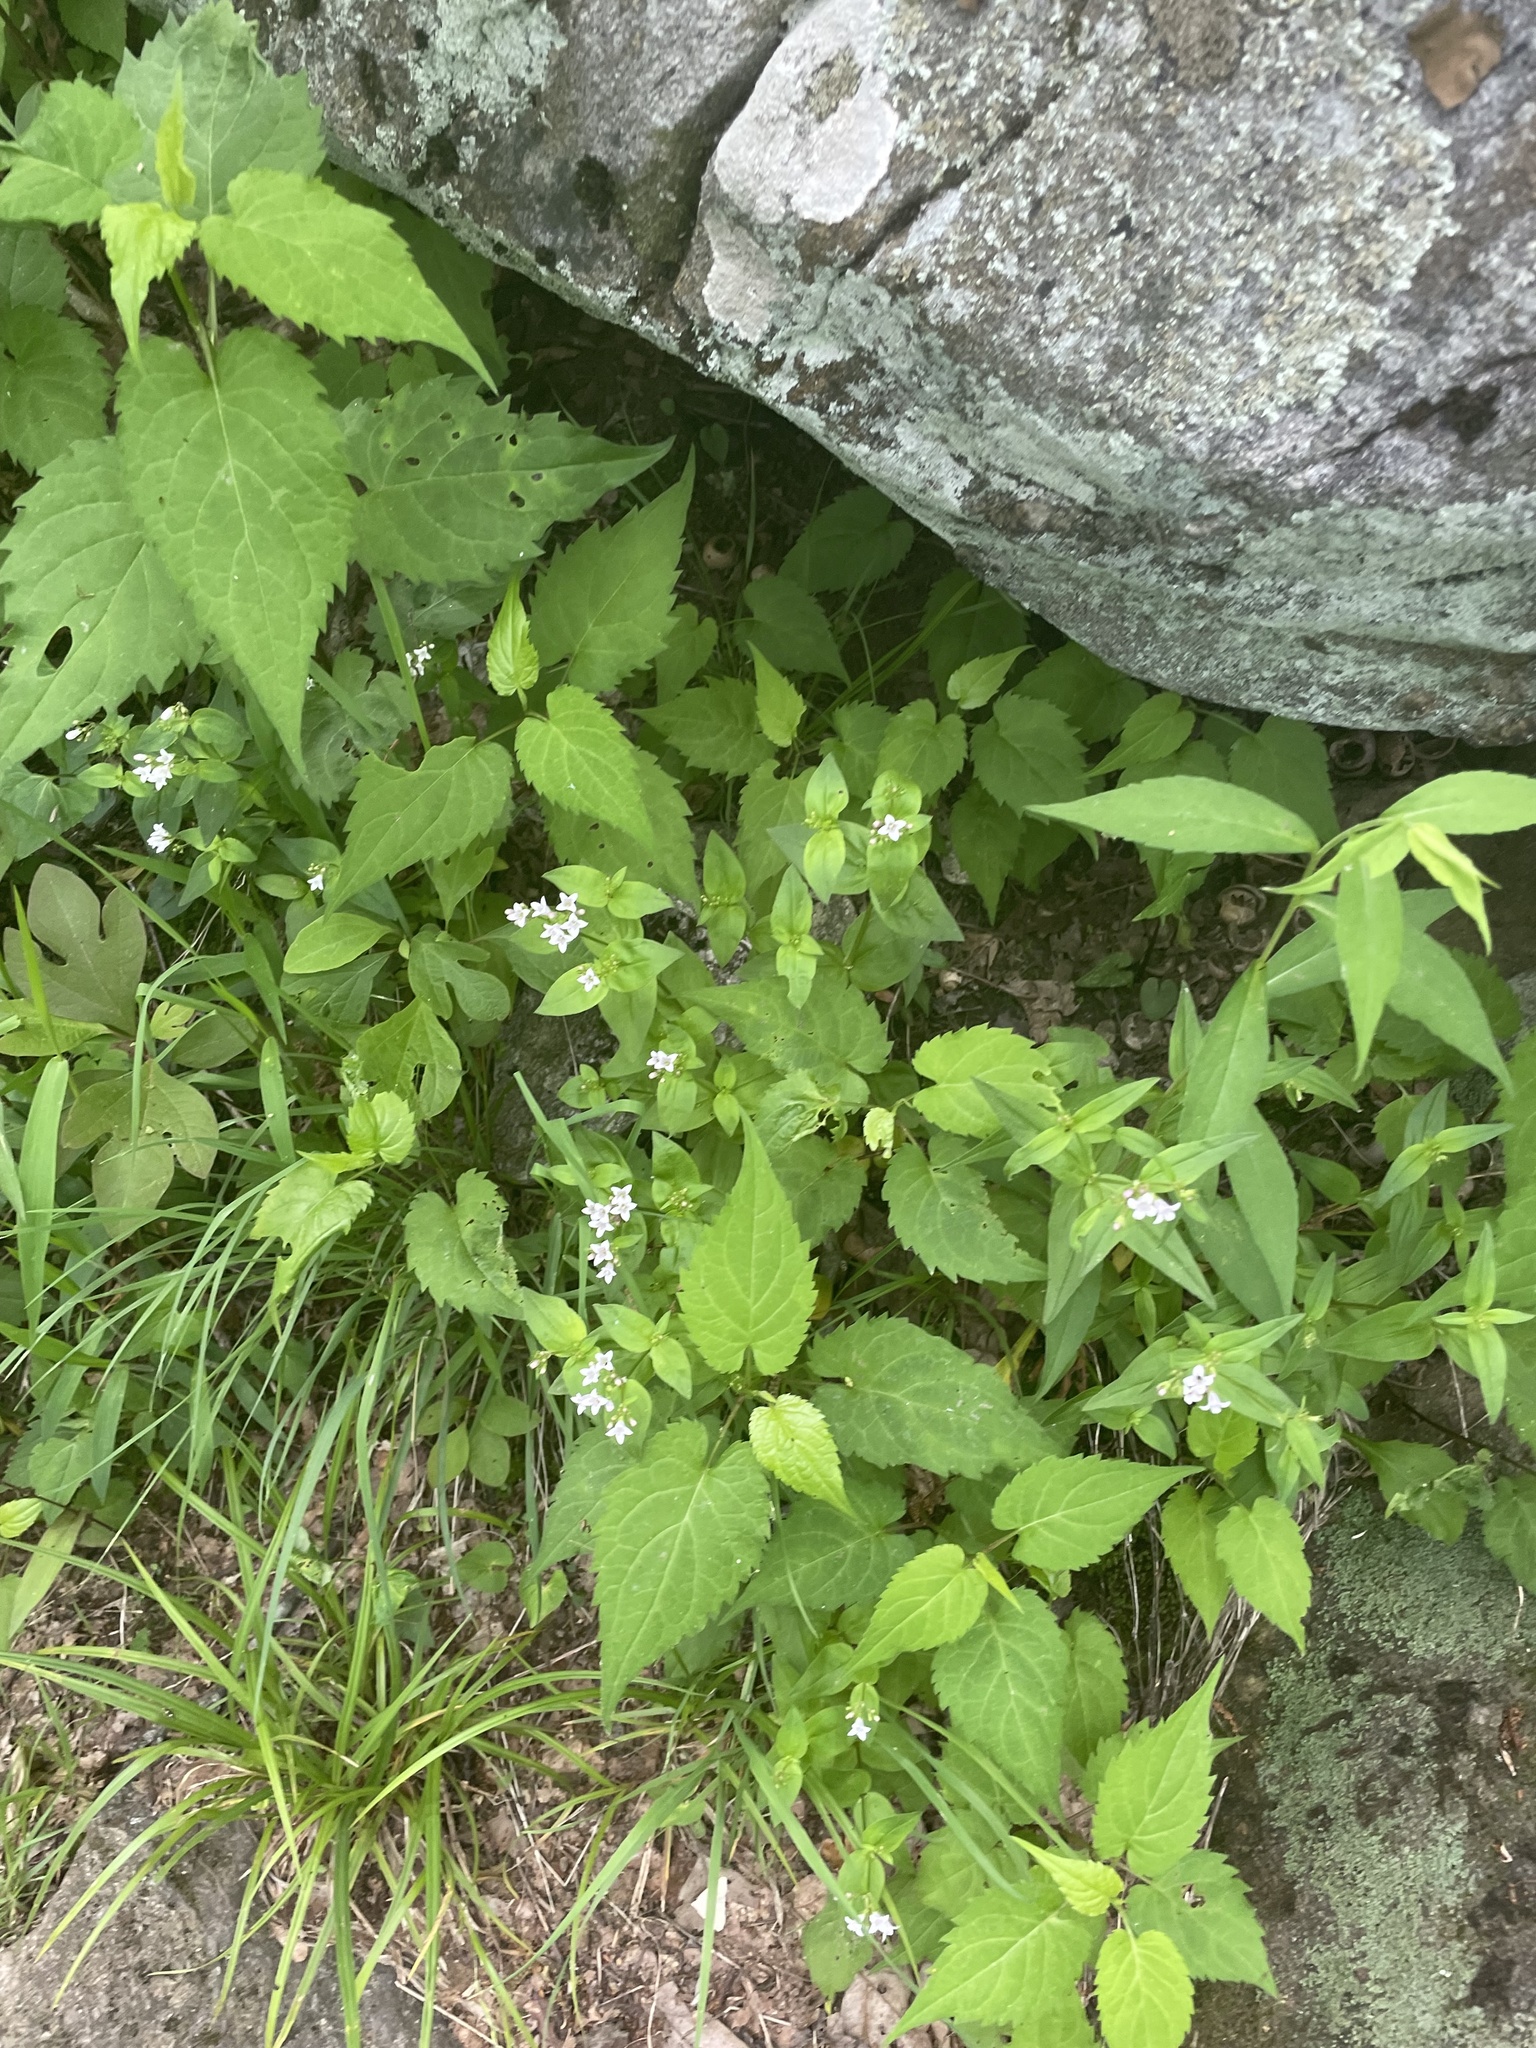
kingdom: Plantae
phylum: Tracheophyta
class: Magnoliopsida
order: Gentianales
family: Rubiaceae
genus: Houstonia
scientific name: Houstonia purpurea
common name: Summer bluet
